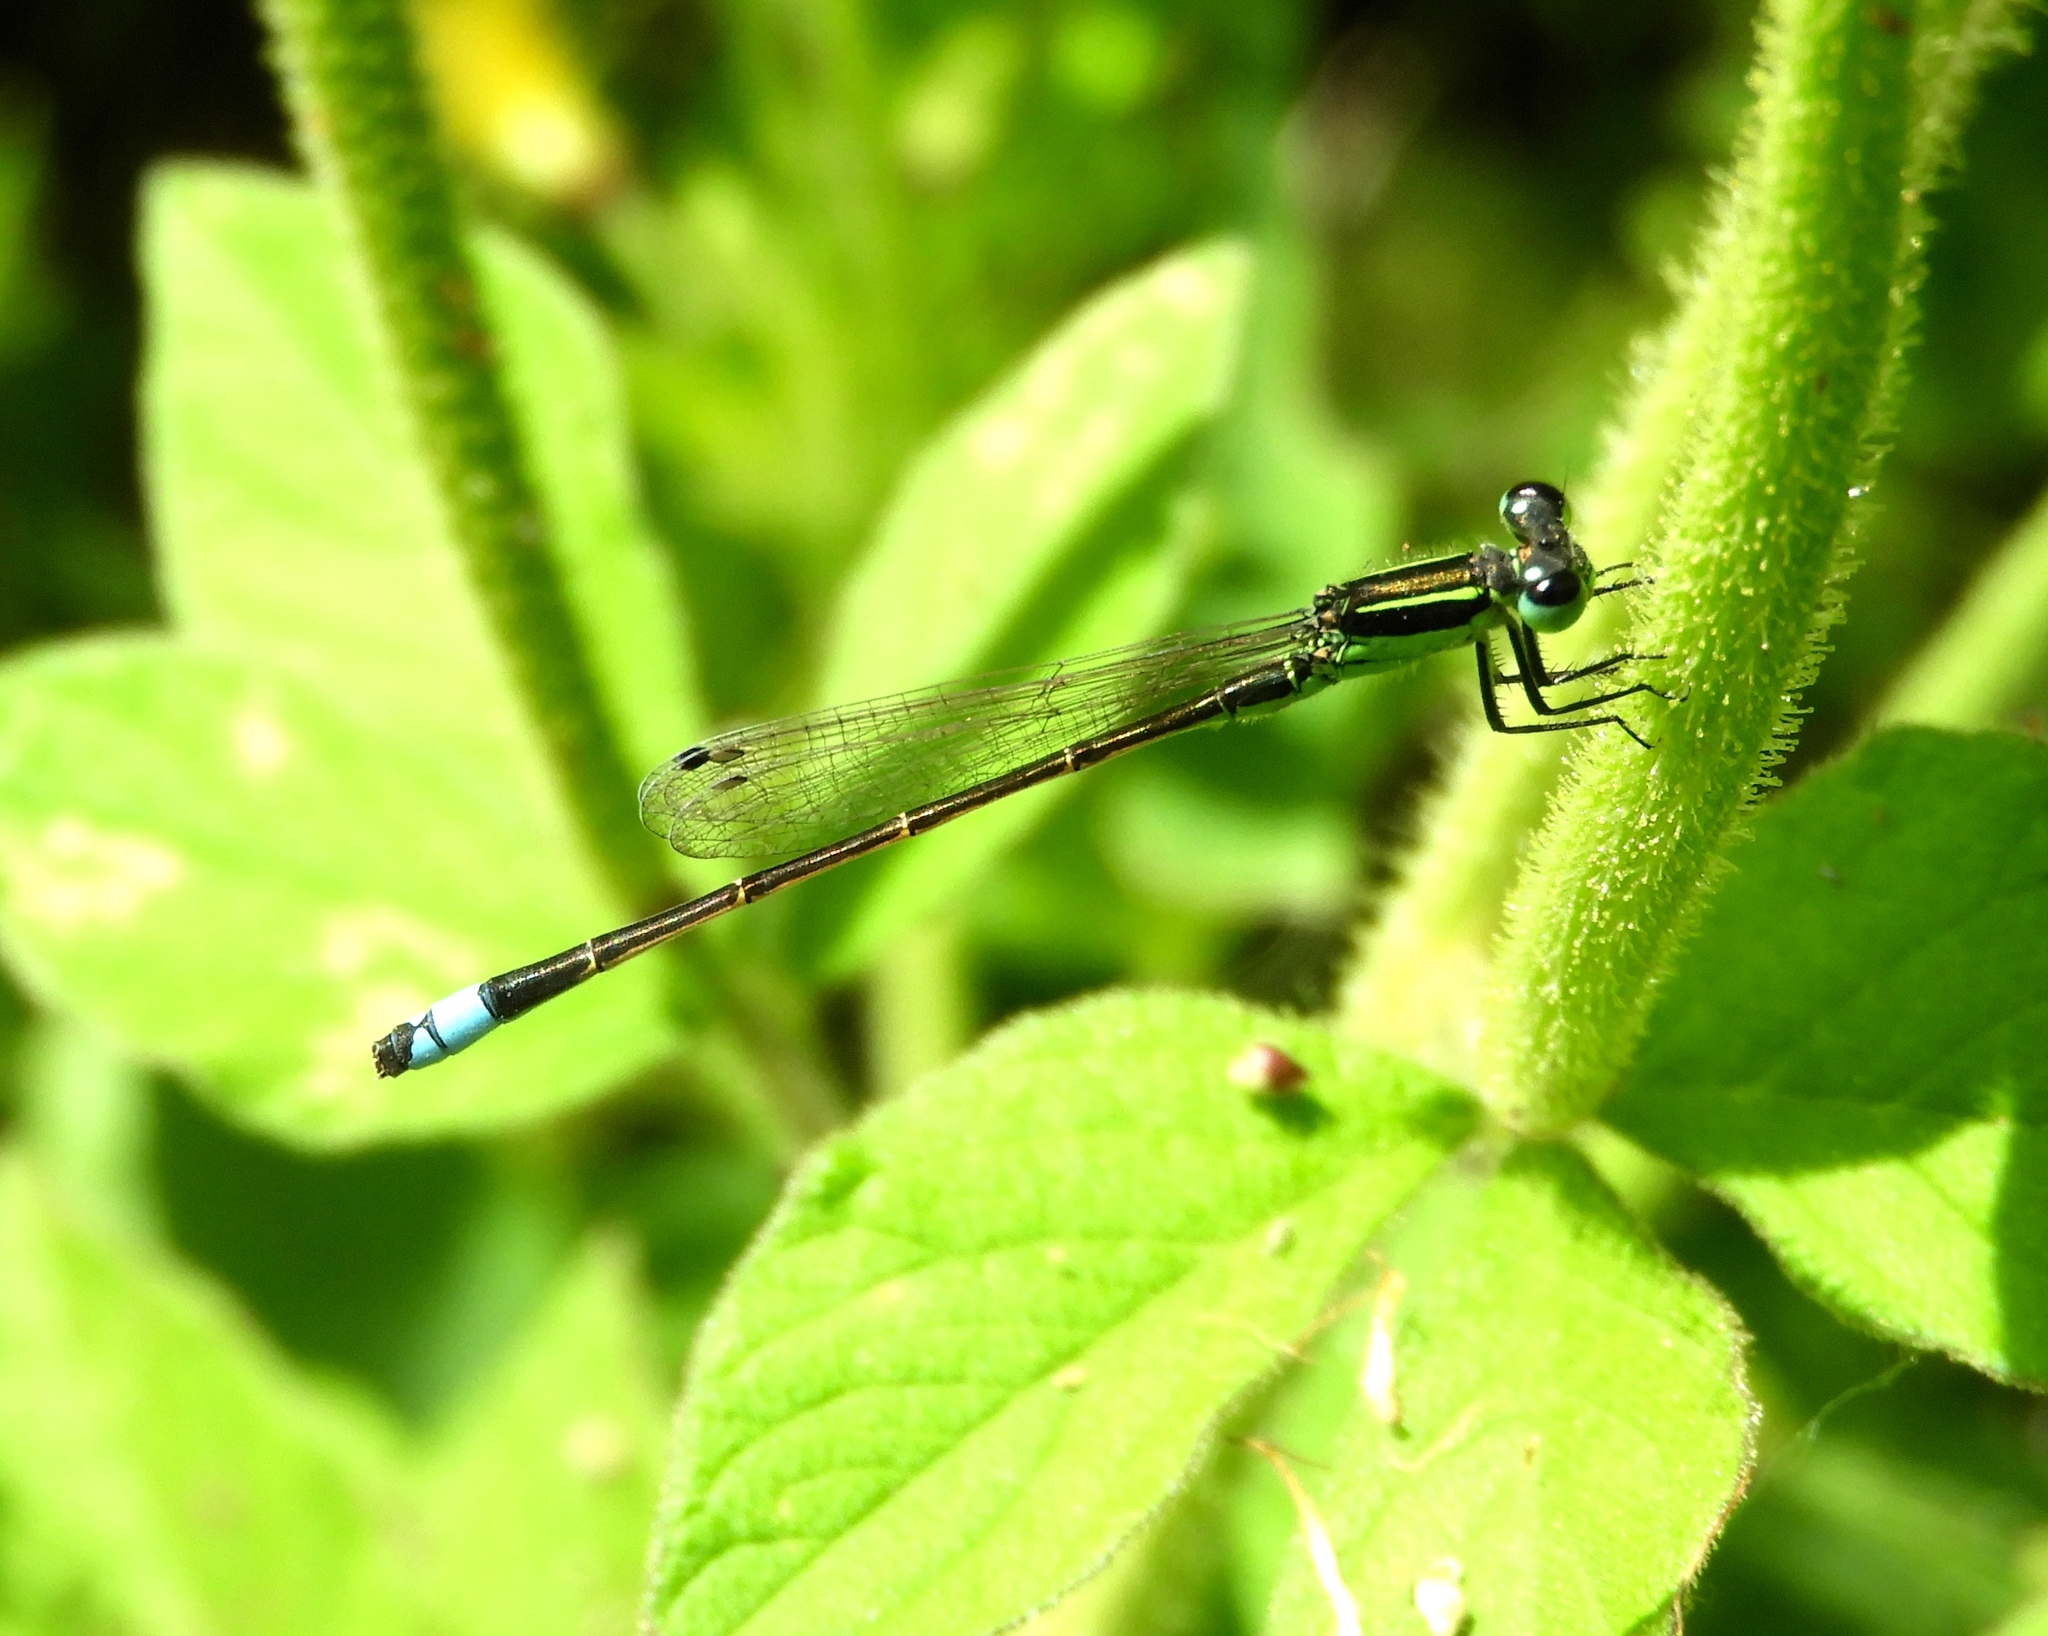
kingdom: Animalia
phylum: Arthropoda
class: Insecta
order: Odonata
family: Coenagrionidae
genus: Ischnura
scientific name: Ischnura ramburii
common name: Rambur's forktail
